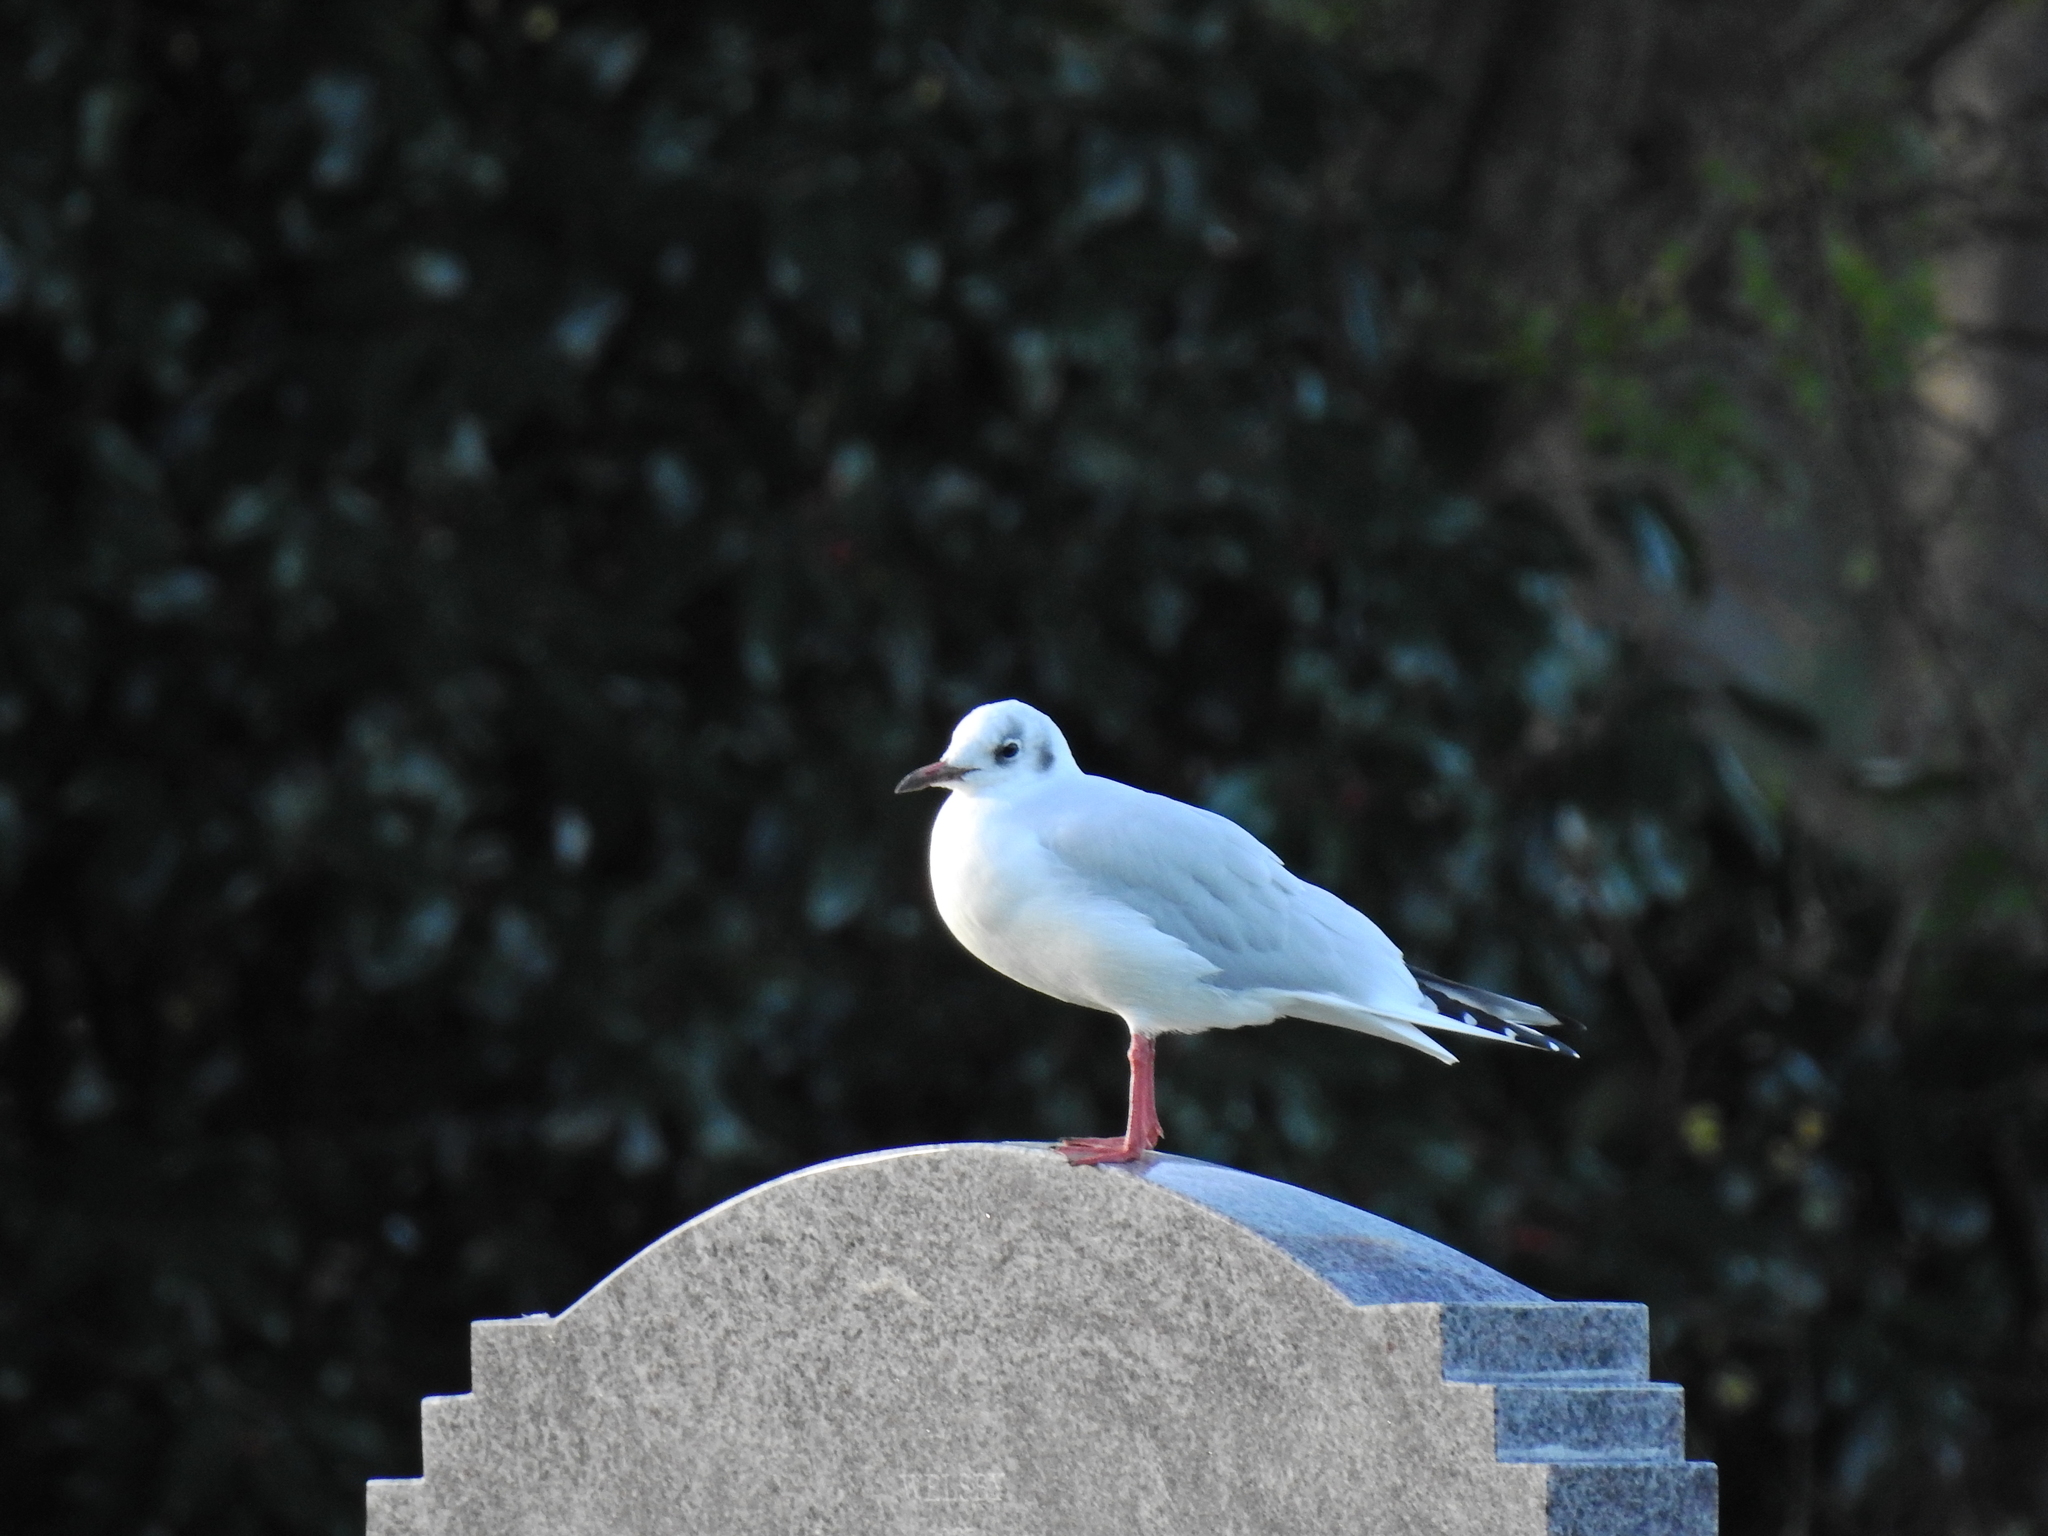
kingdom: Animalia
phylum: Chordata
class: Aves
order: Charadriiformes
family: Laridae
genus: Chroicocephalus
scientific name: Chroicocephalus ridibundus
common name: Black-headed gull
